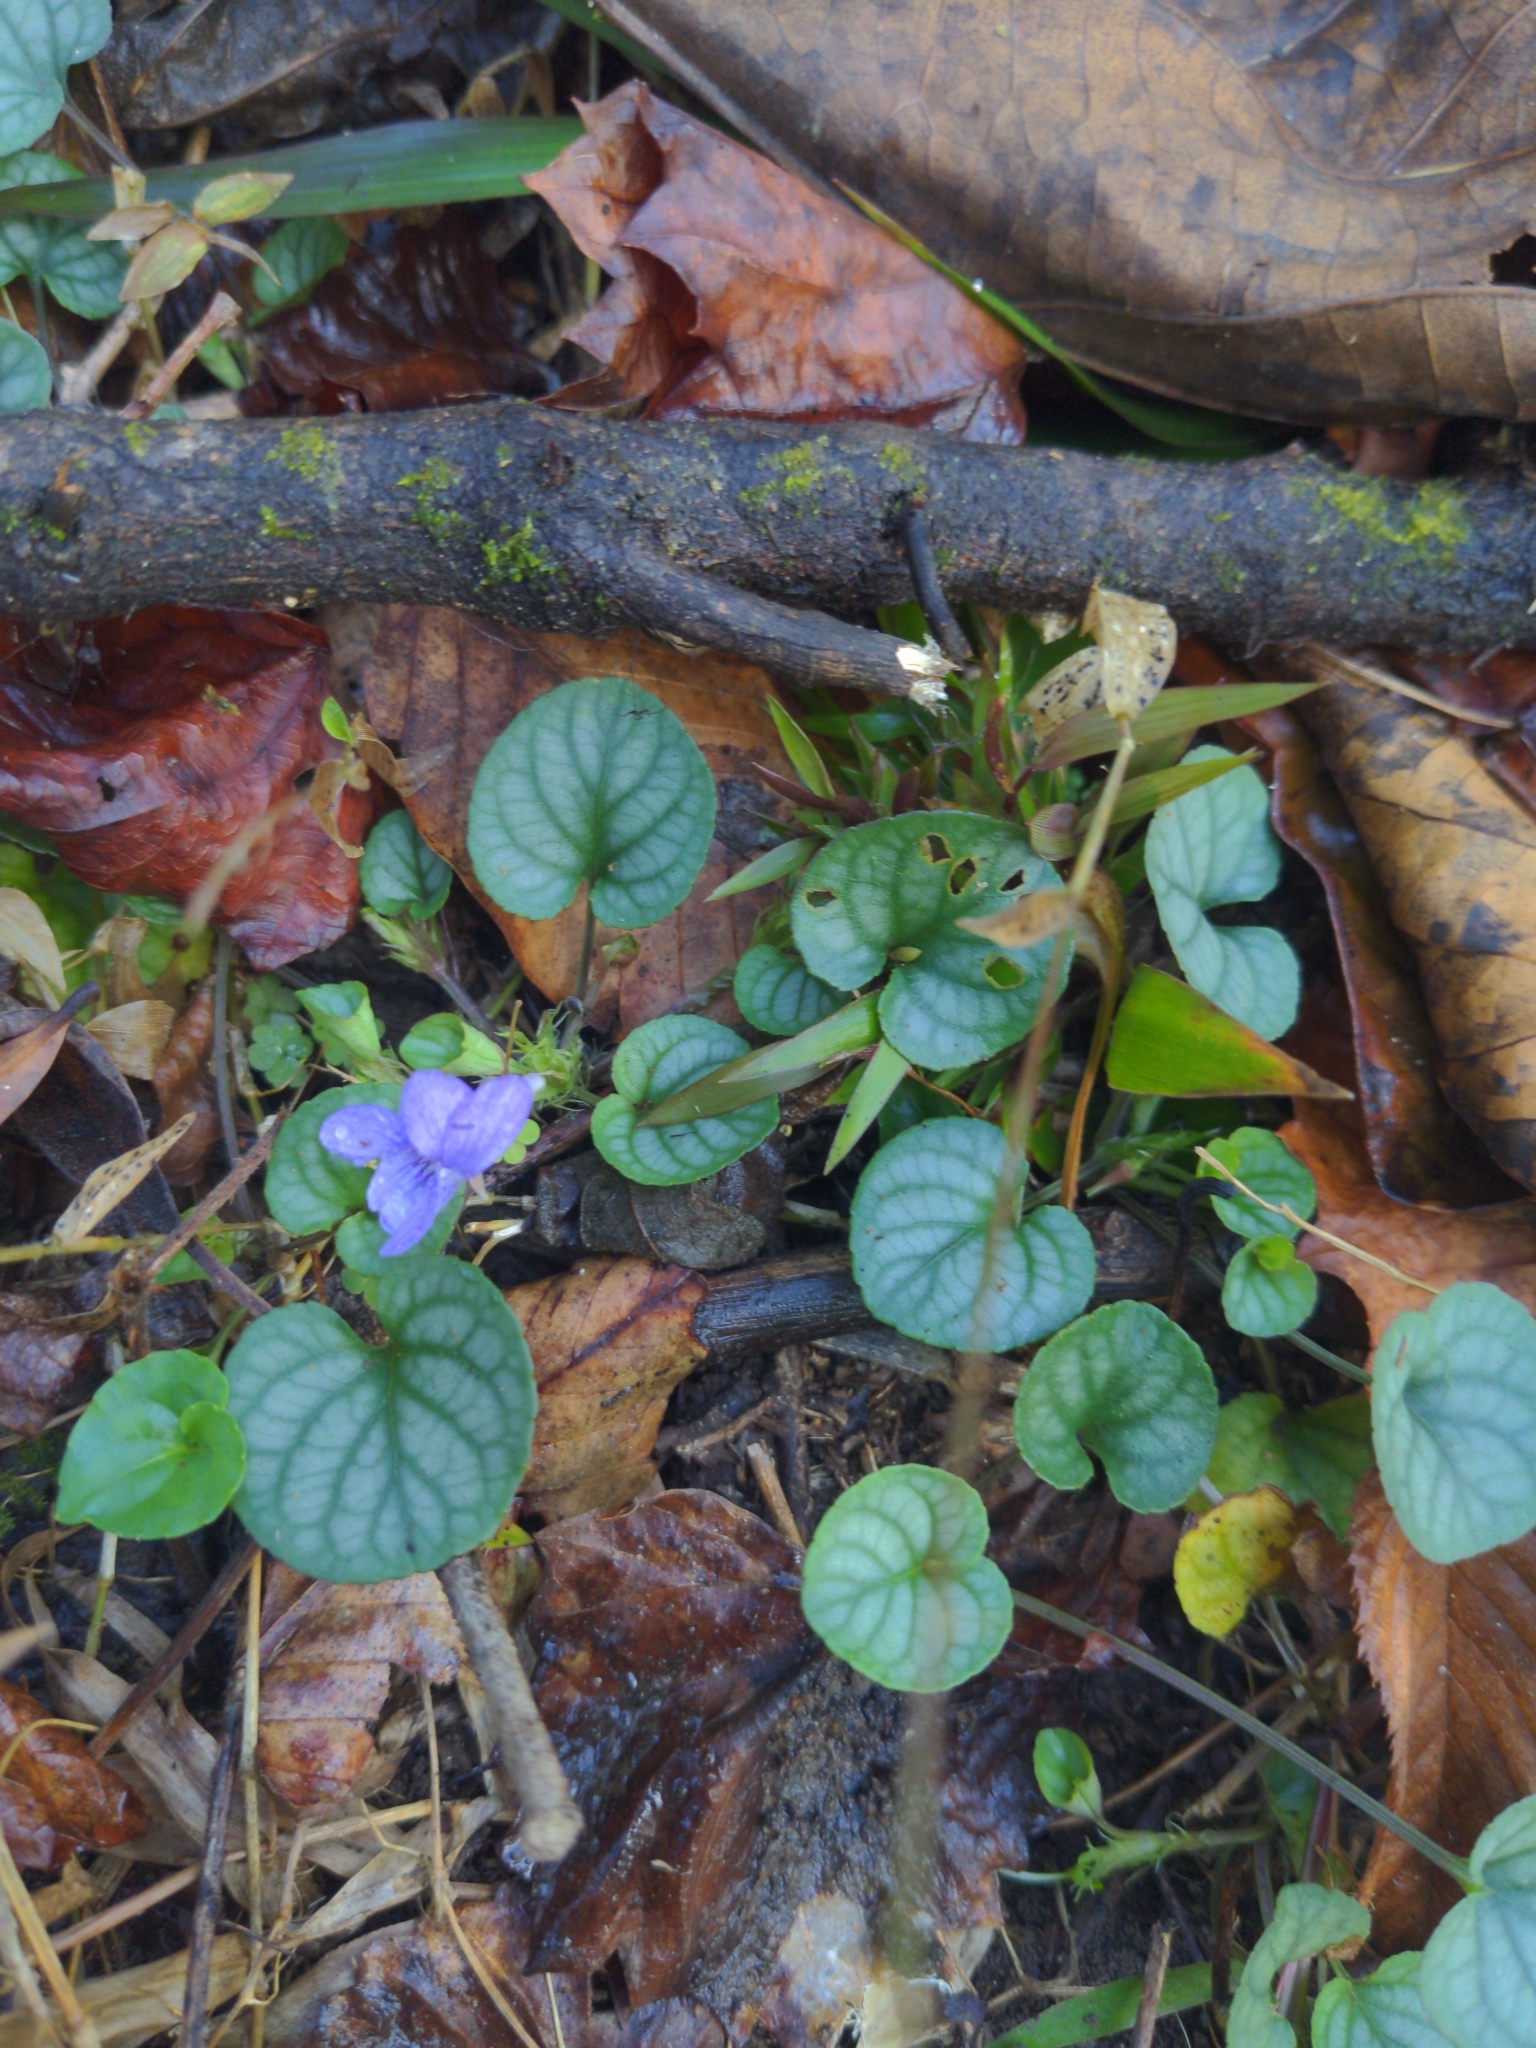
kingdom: Plantae
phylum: Tracheophyta
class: Magnoliopsida
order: Malpighiales
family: Violaceae
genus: Viola
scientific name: Viola walteri
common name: Prostrate southern violet
